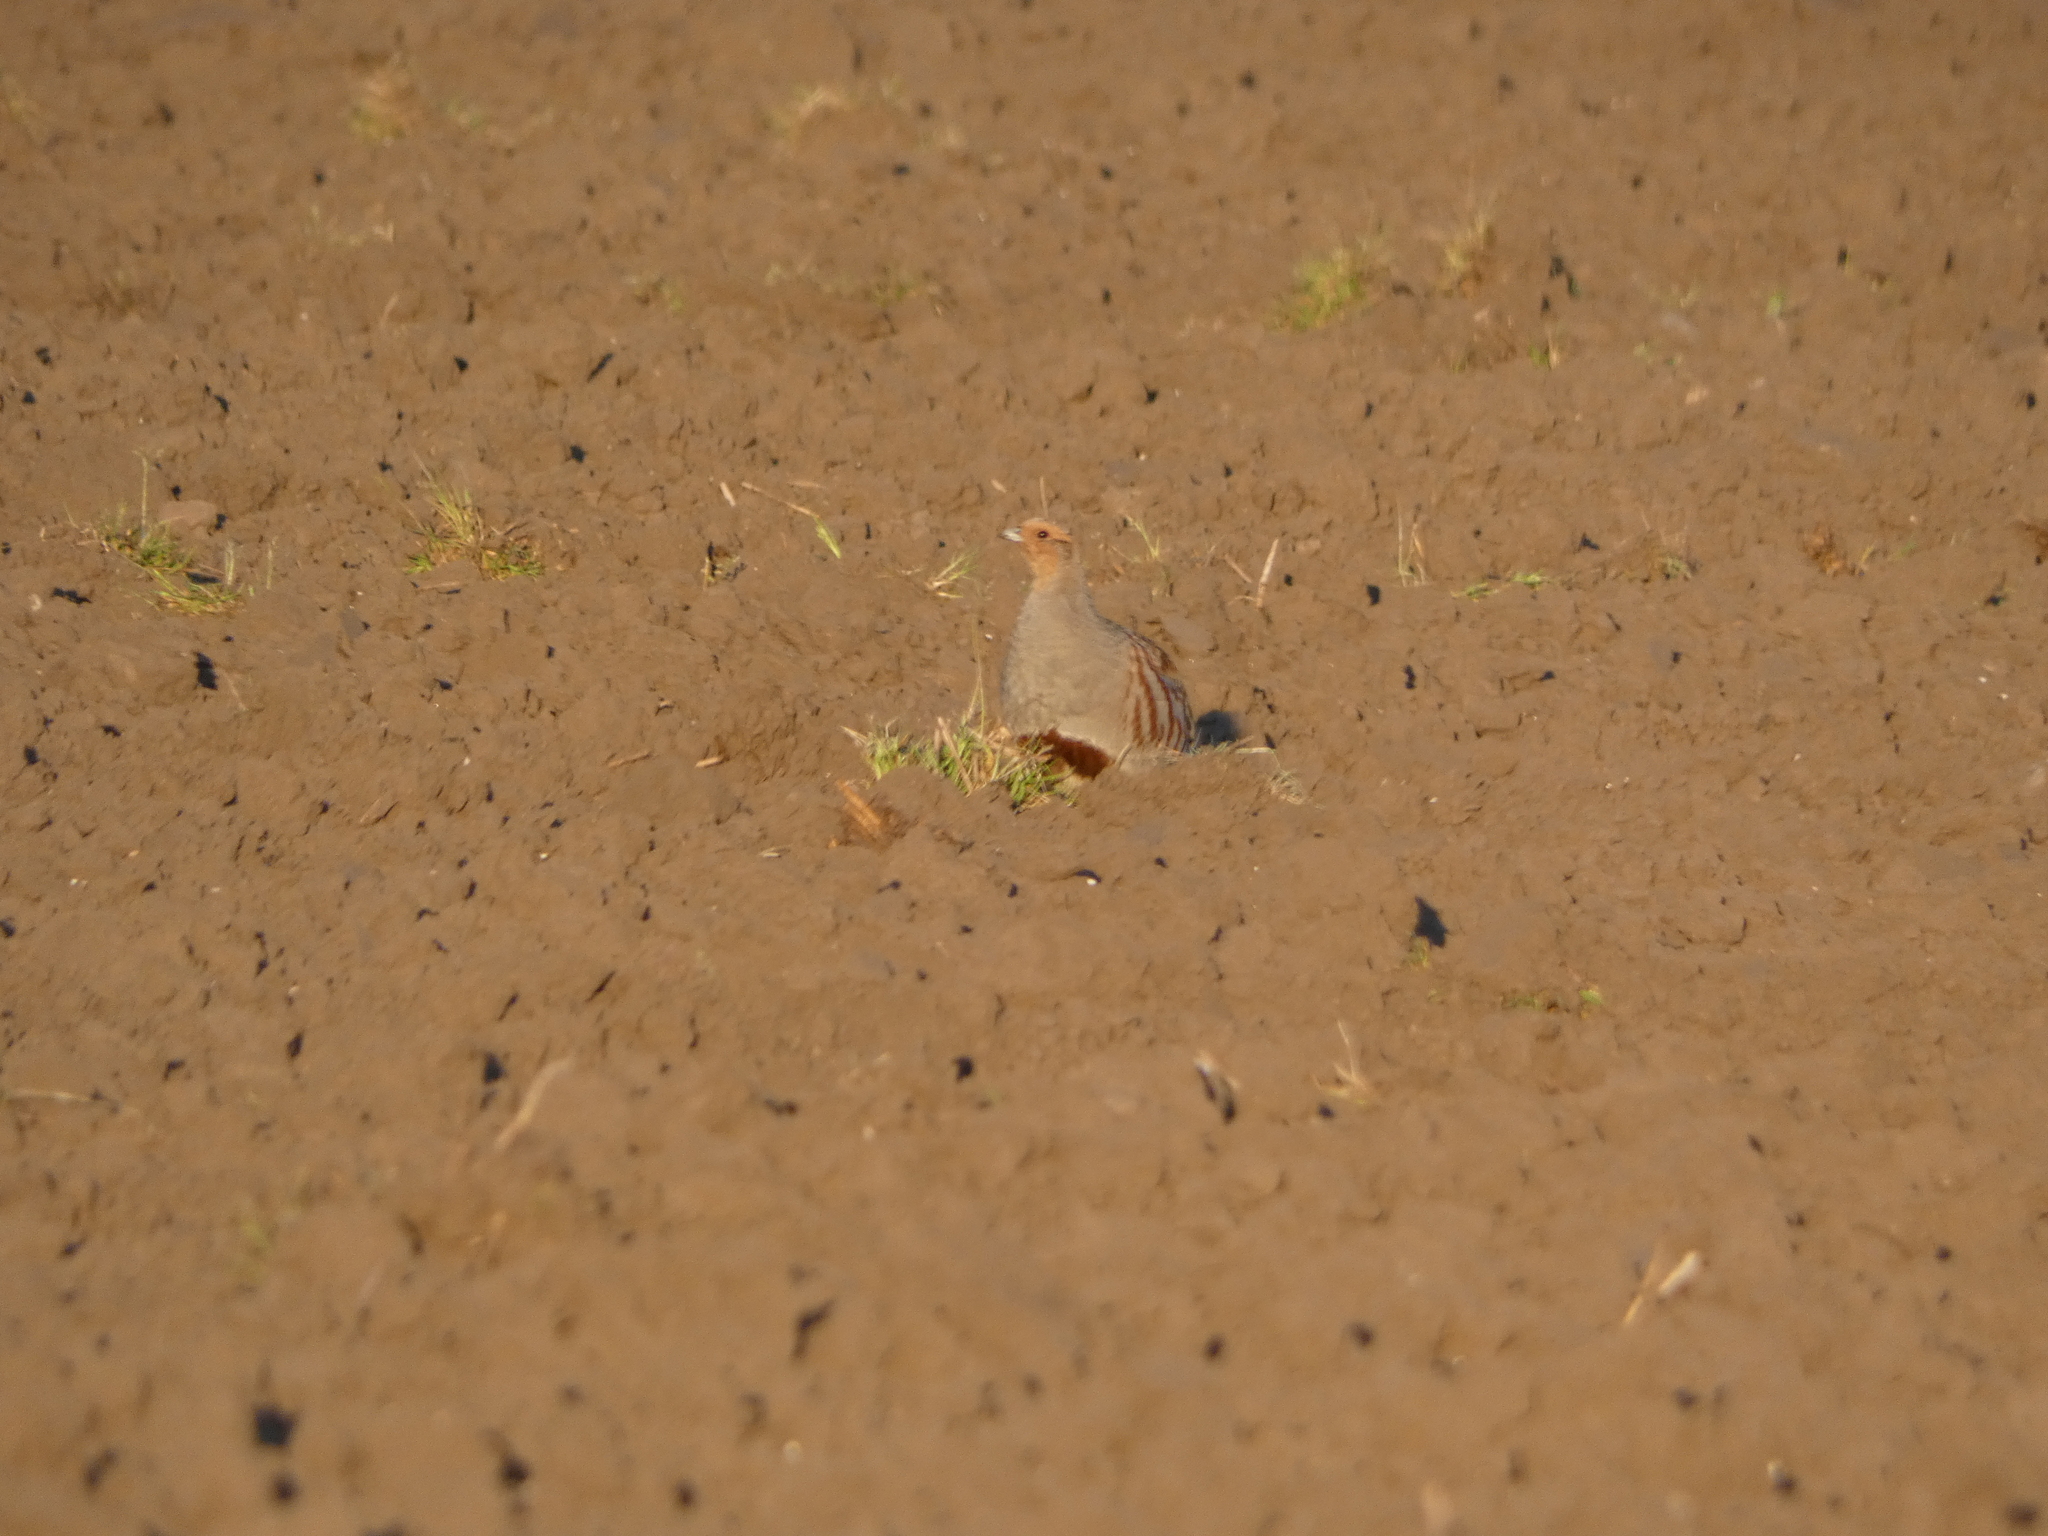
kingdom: Animalia
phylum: Chordata
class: Aves
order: Galliformes
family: Phasianidae
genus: Perdix
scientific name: Perdix perdix
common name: Grey partridge
